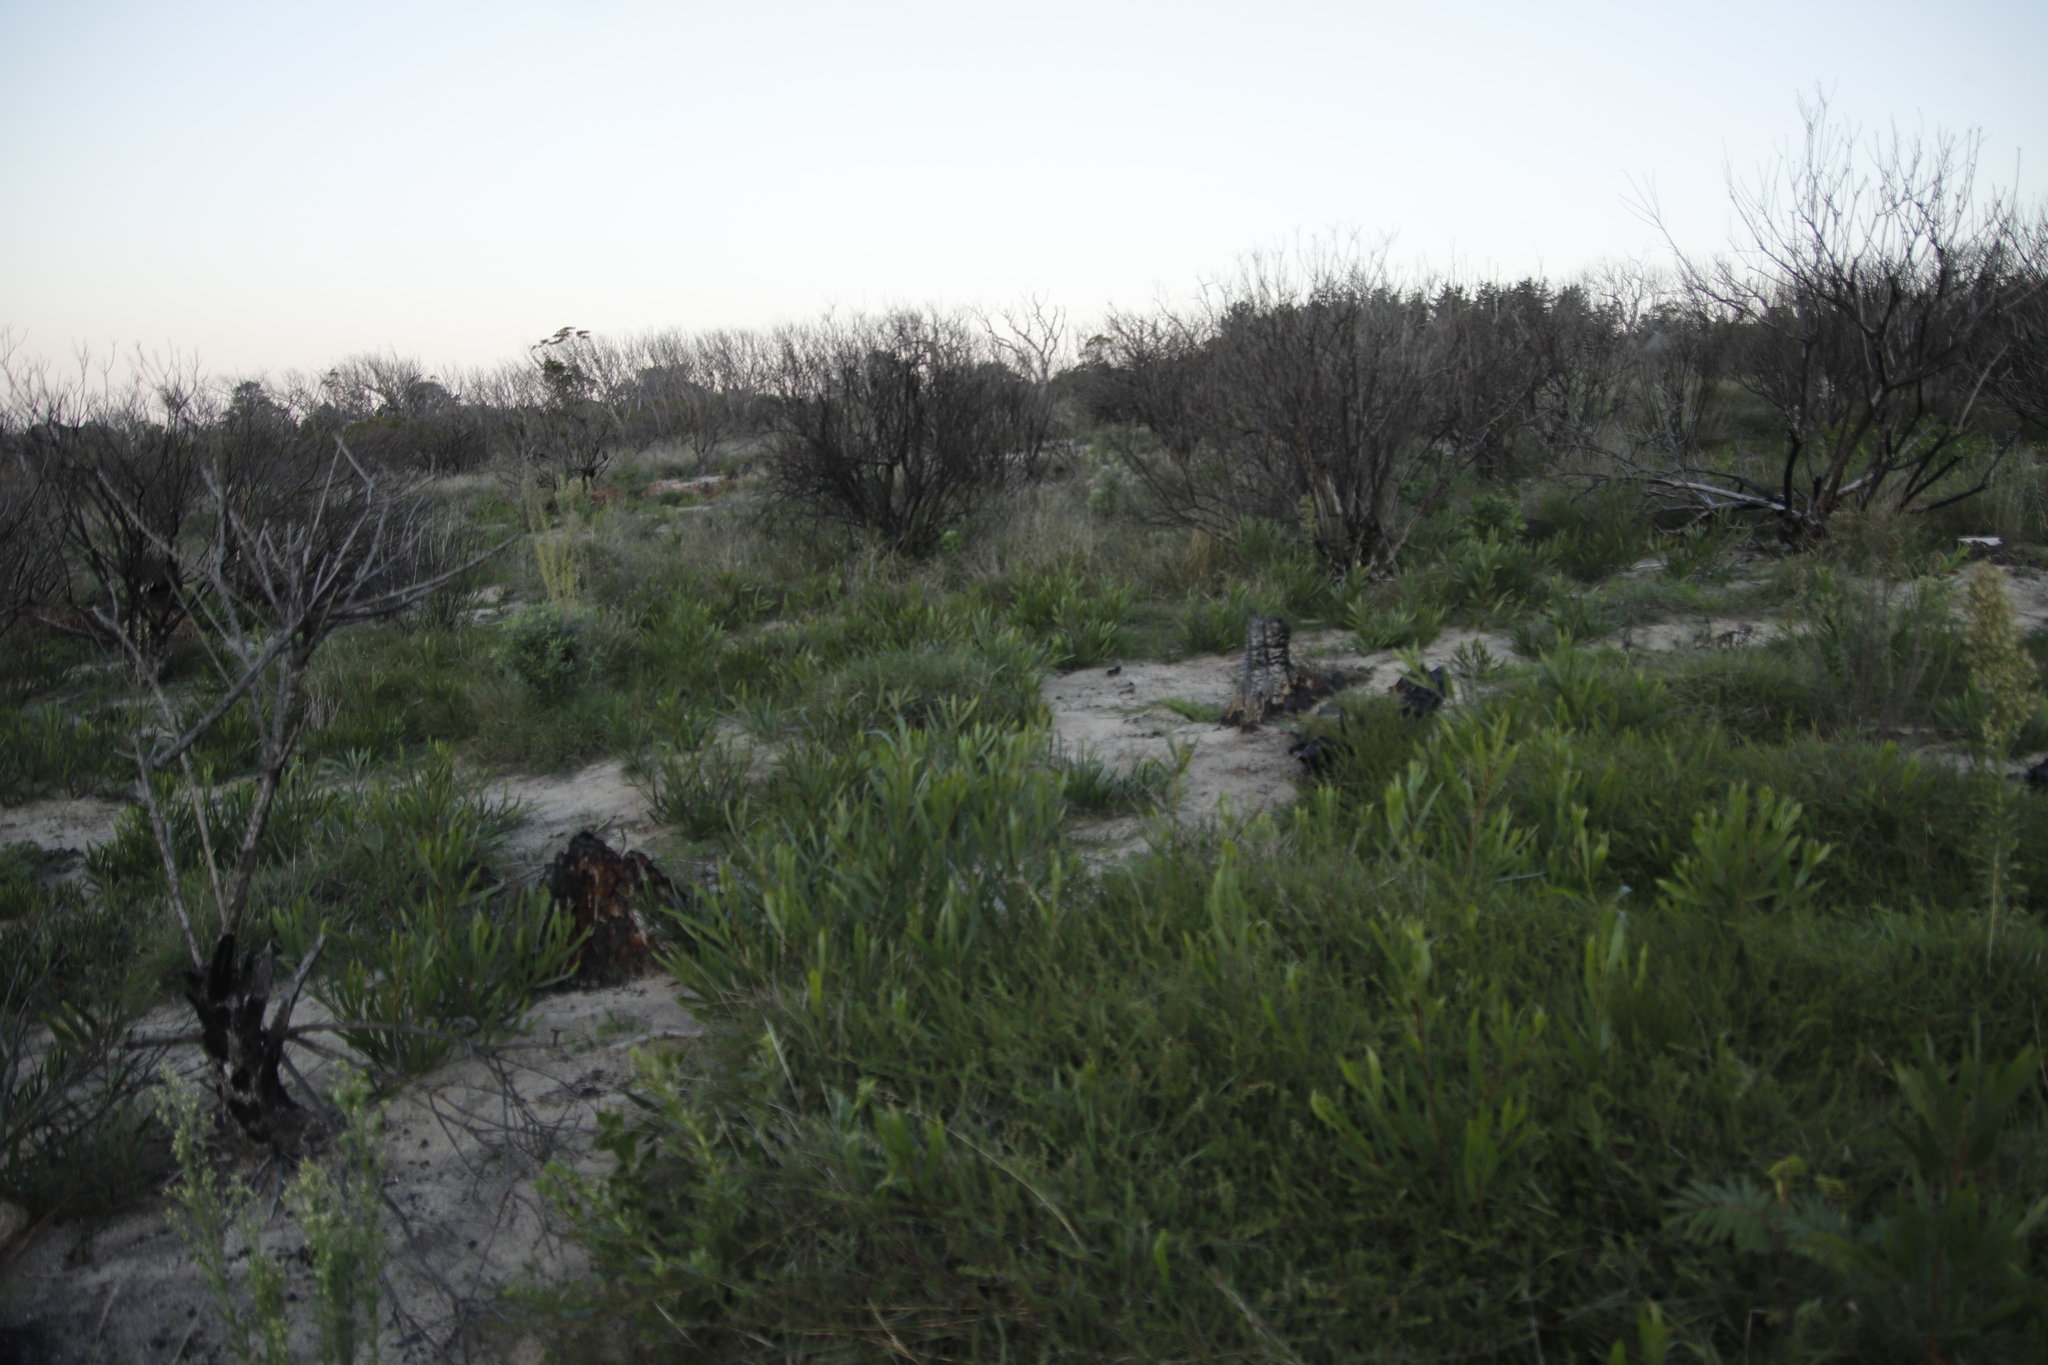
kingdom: Plantae
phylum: Tracheophyta
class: Magnoliopsida
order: Fabales
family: Fabaceae
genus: Acacia
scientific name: Acacia longifolia
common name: Sydney golden wattle
